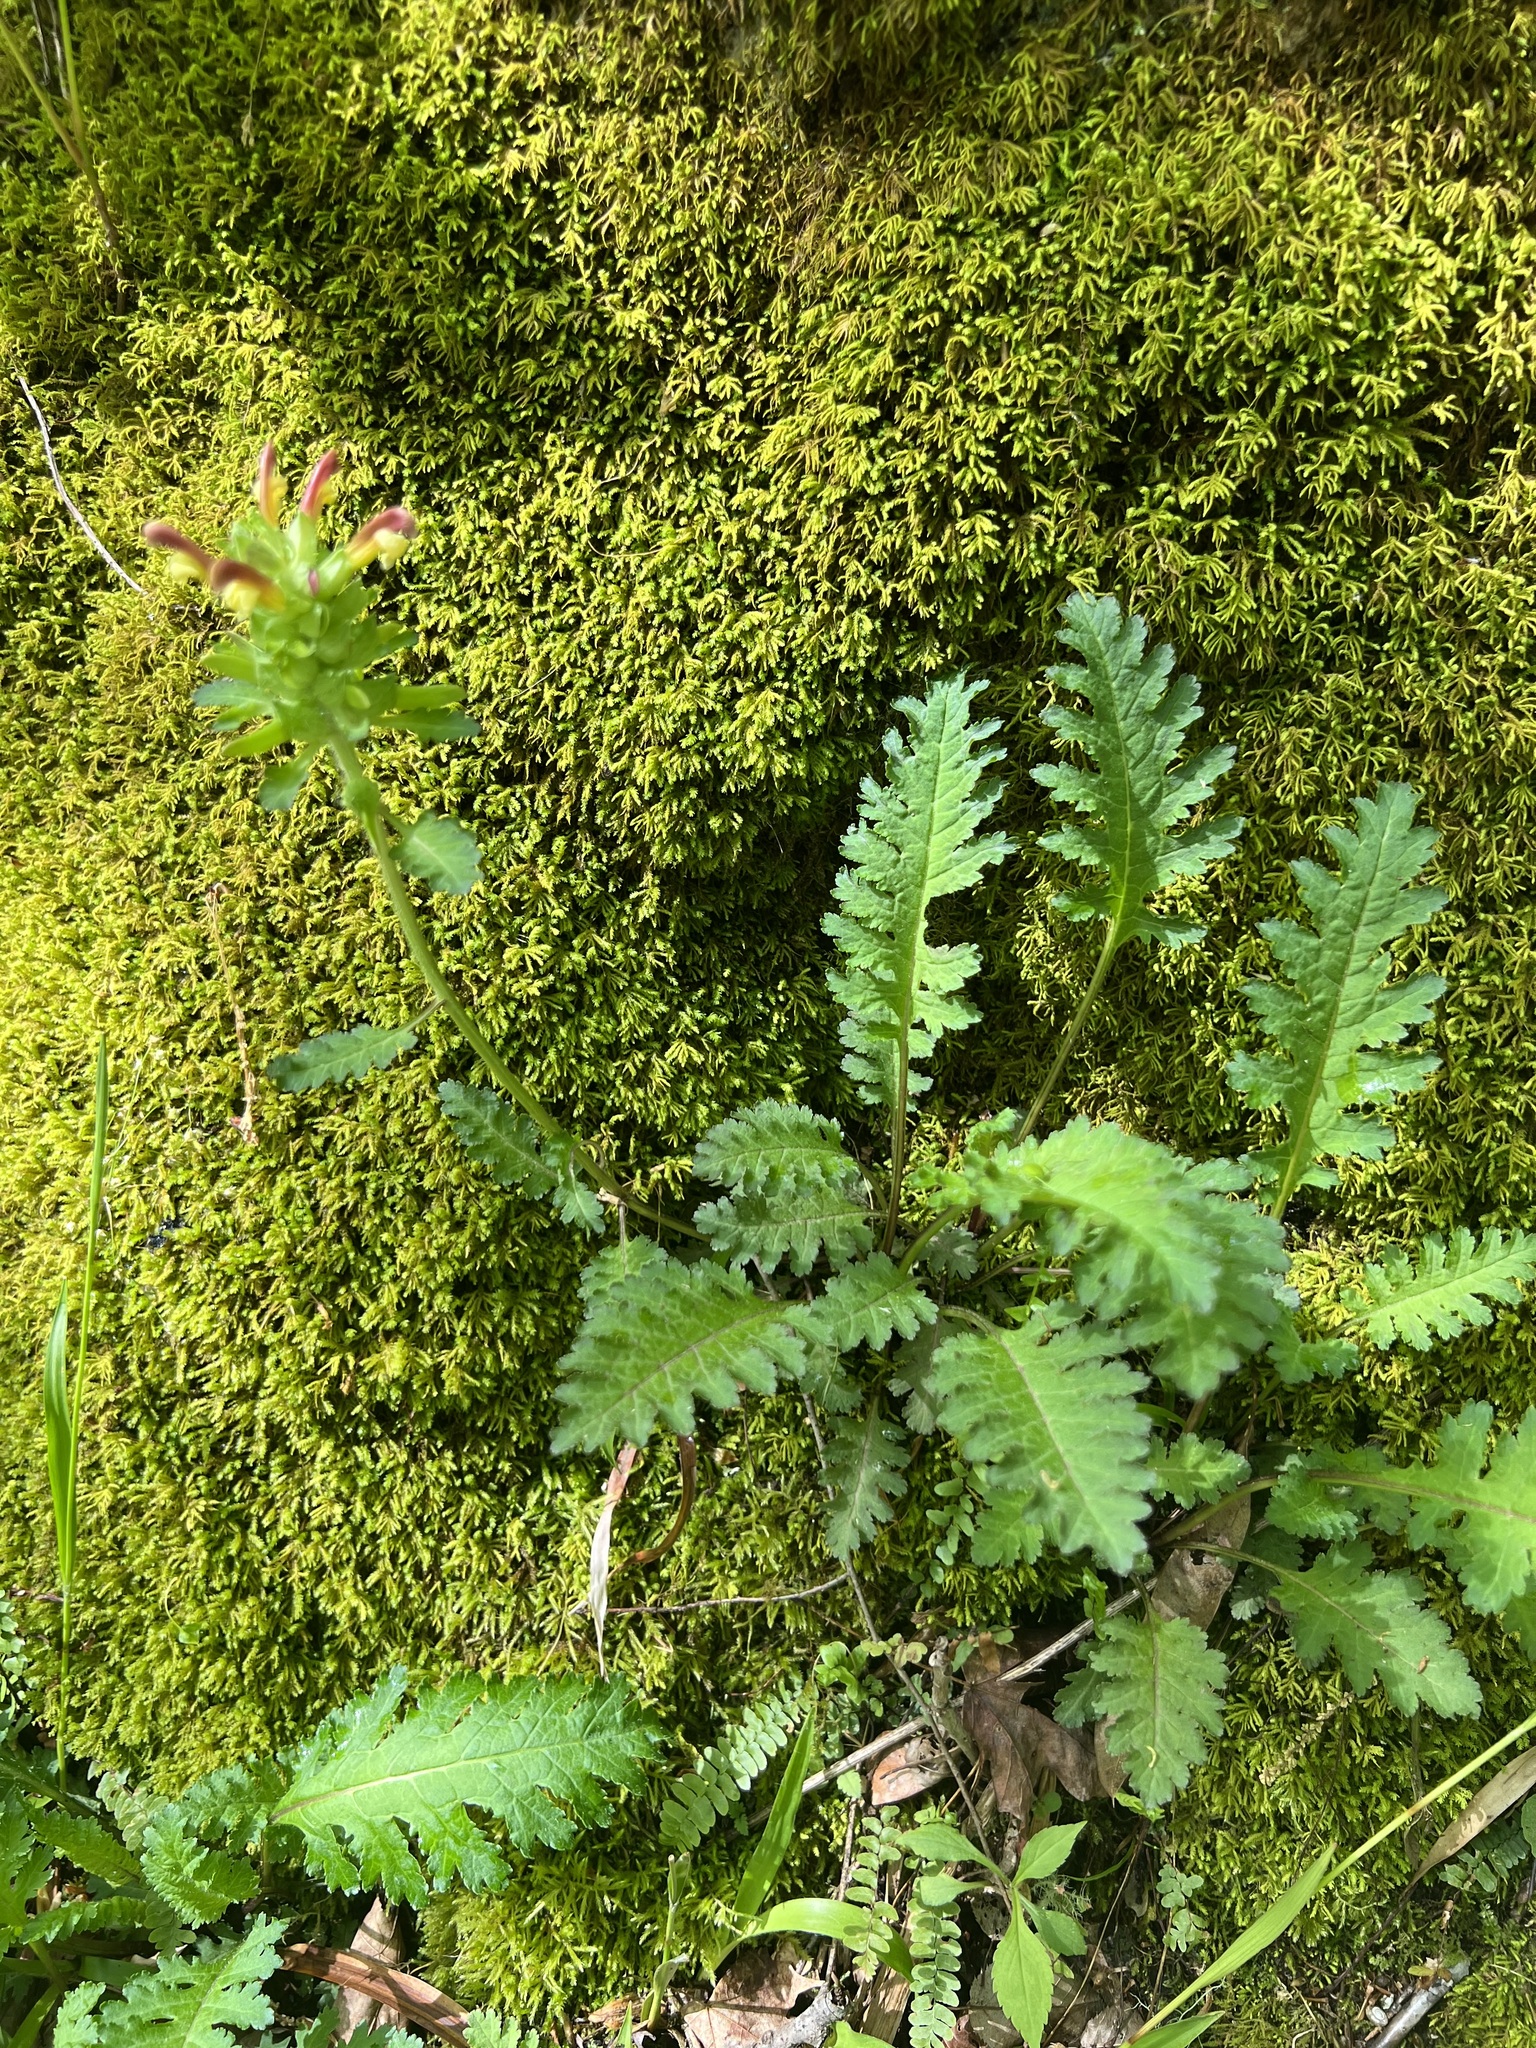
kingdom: Plantae
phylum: Tracheophyta
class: Magnoliopsida
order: Lamiales
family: Orobanchaceae
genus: Pedicularis
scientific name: Pedicularis canadensis
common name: Early lousewort
